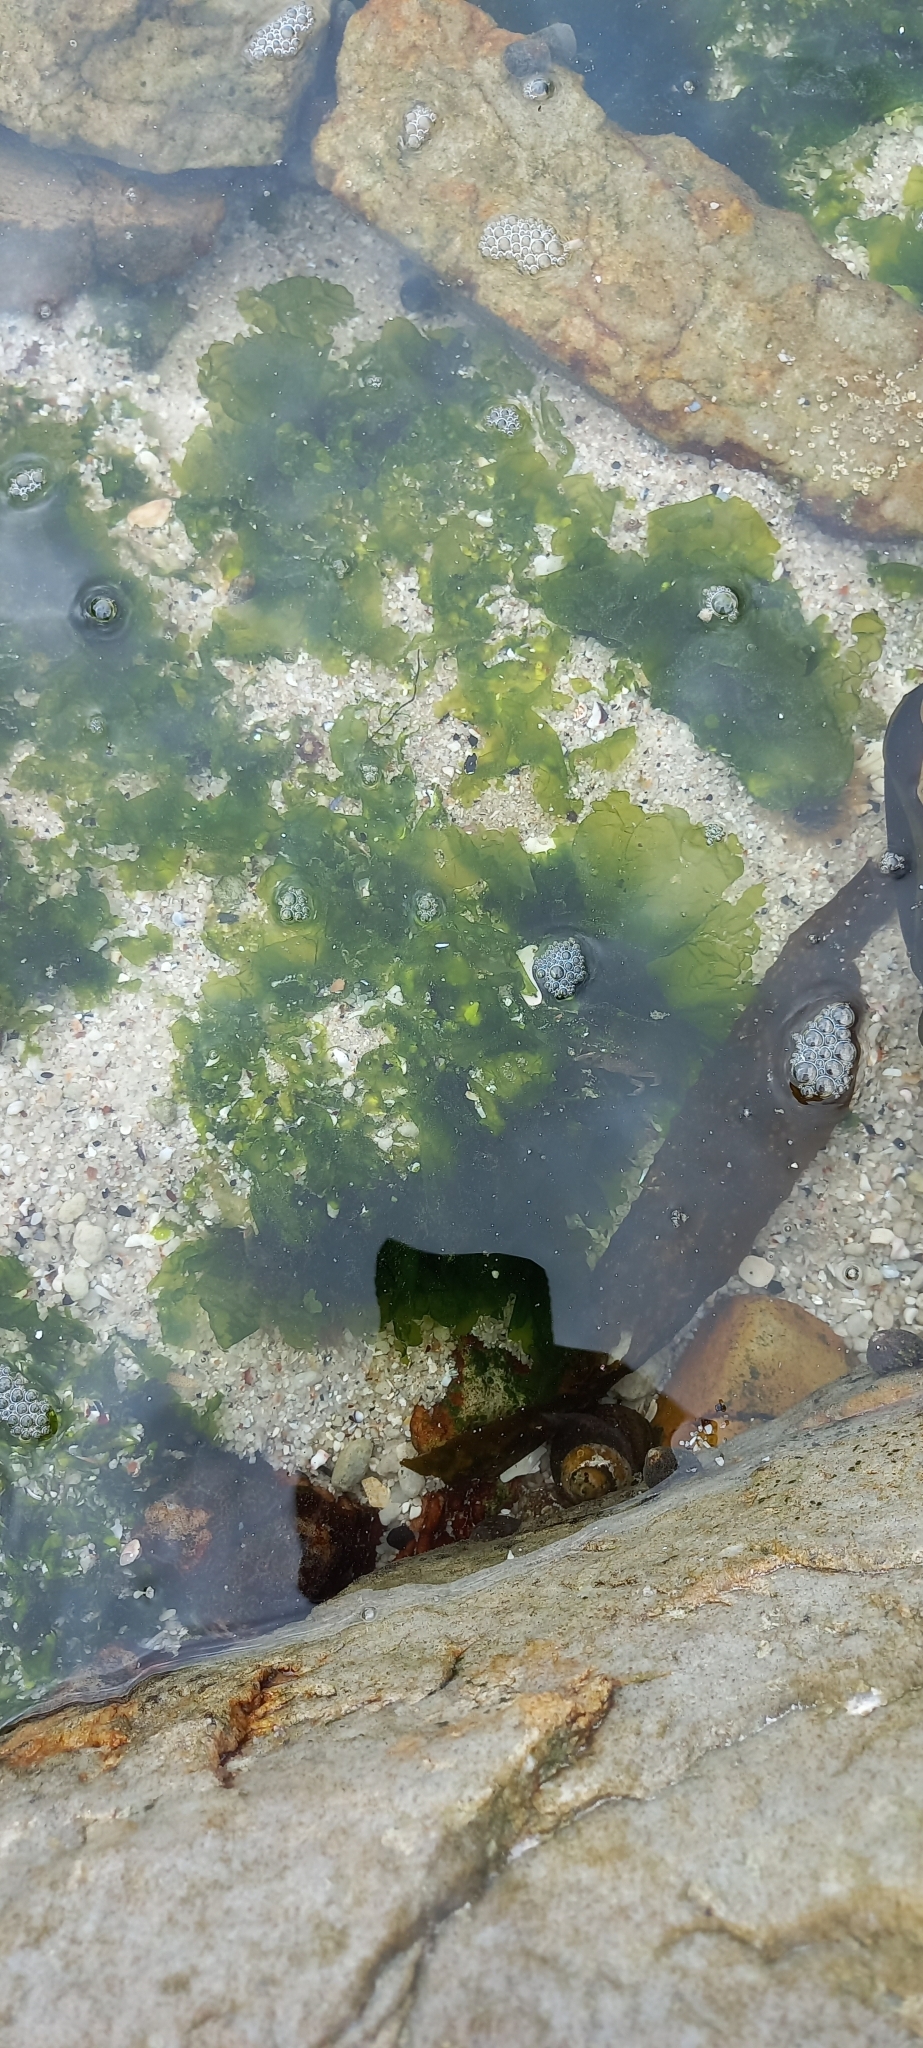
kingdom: Plantae
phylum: Chlorophyta
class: Ulvophyceae
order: Ulvales
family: Ulvaceae
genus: Ulva
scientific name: Ulva lactuca
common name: Sea lettuce
